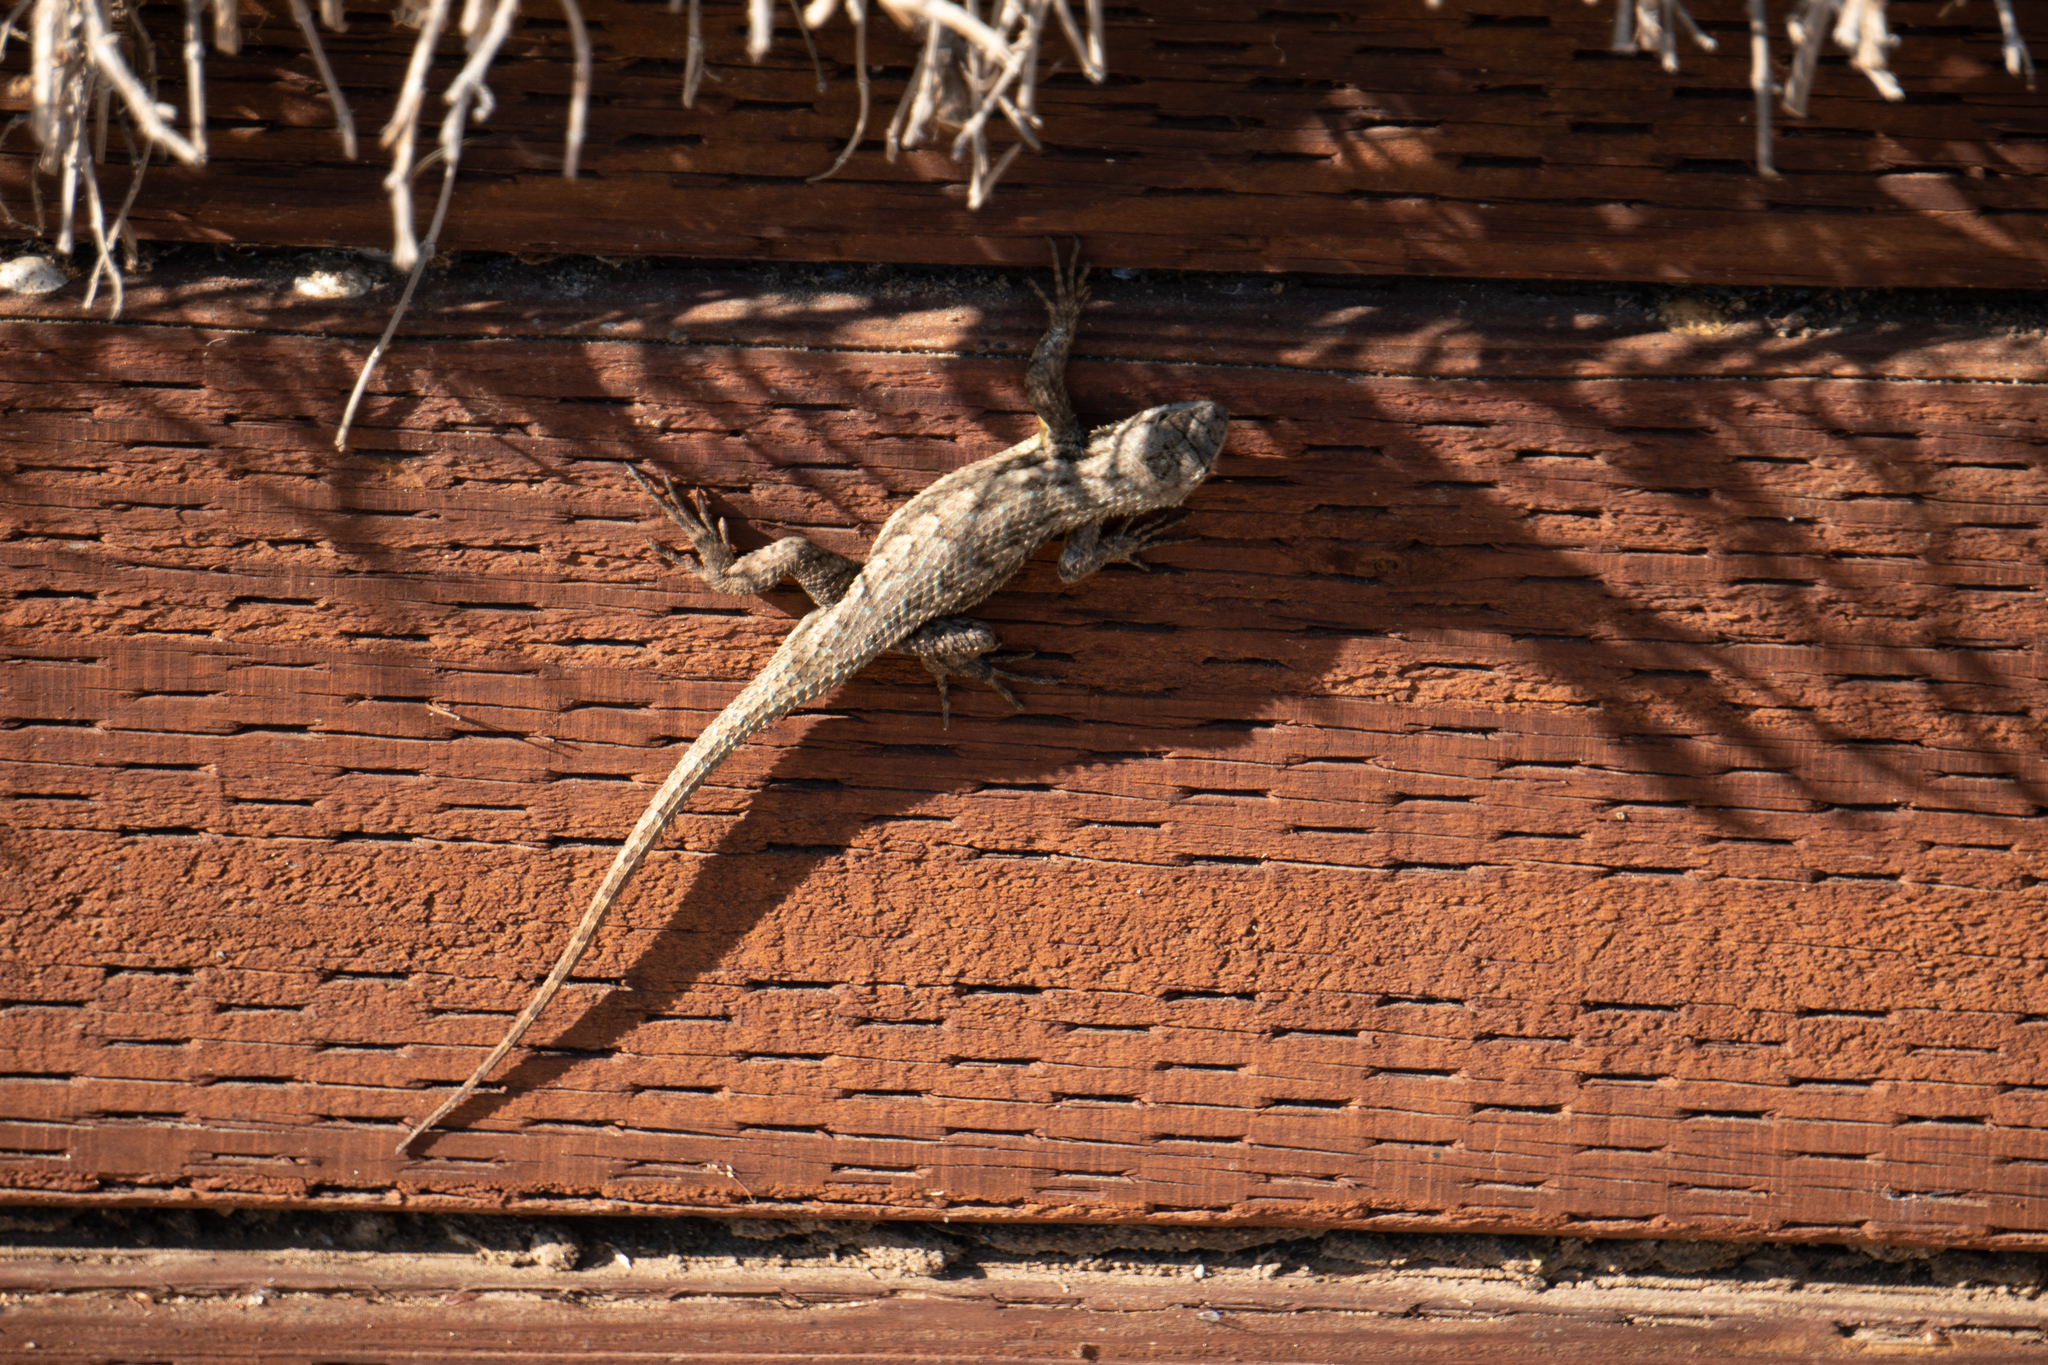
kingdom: Animalia
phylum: Chordata
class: Squamata
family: Phrynosomatidae
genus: Sceloporus
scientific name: Sceloporus occidentalis
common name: Western fence lizard
